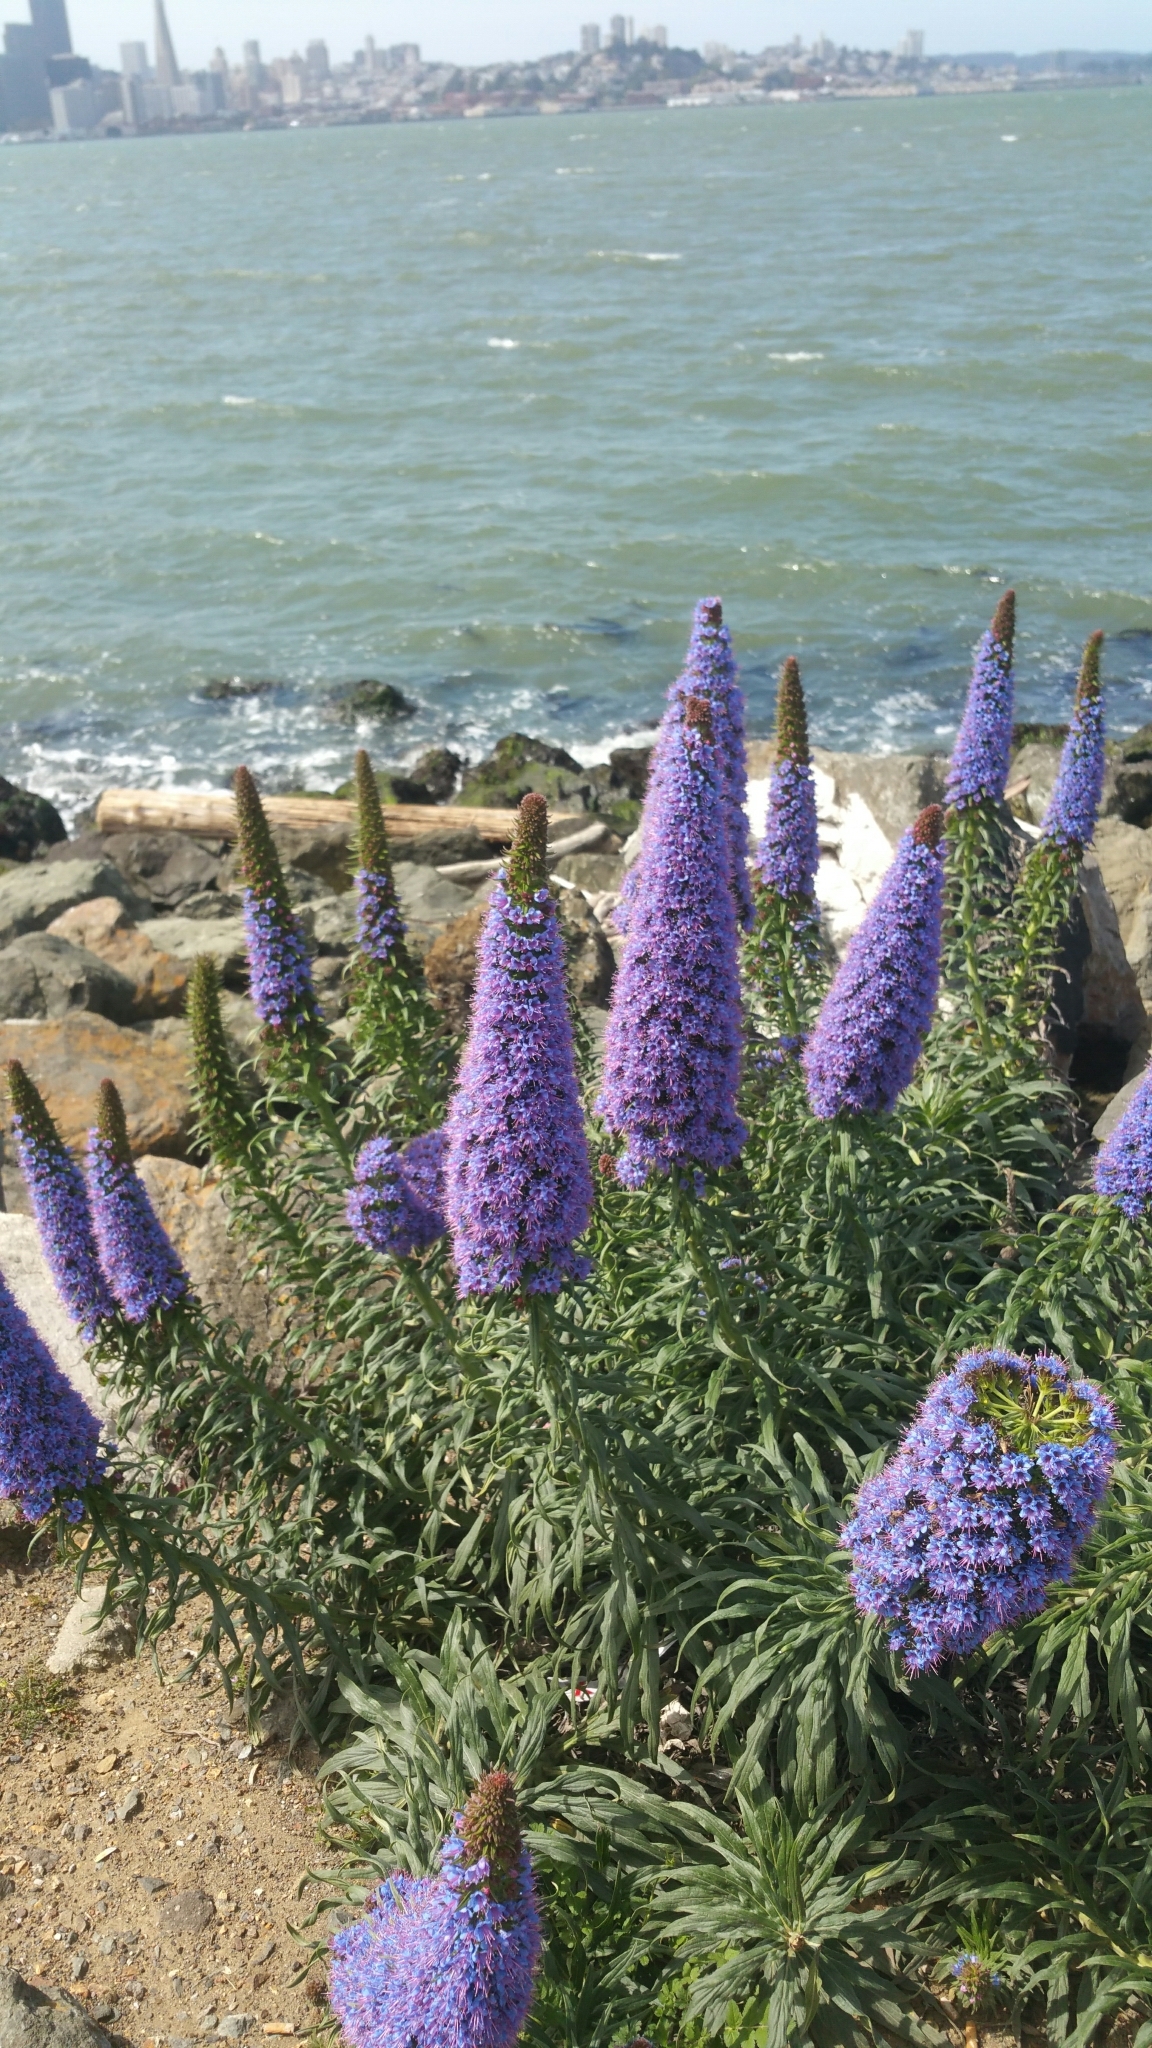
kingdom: Plantae
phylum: Tracheophyta
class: Magnoliopsida
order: Boraginales
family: Boraginaceae
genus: Echium
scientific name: Echium candicans
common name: Pride of madeira
